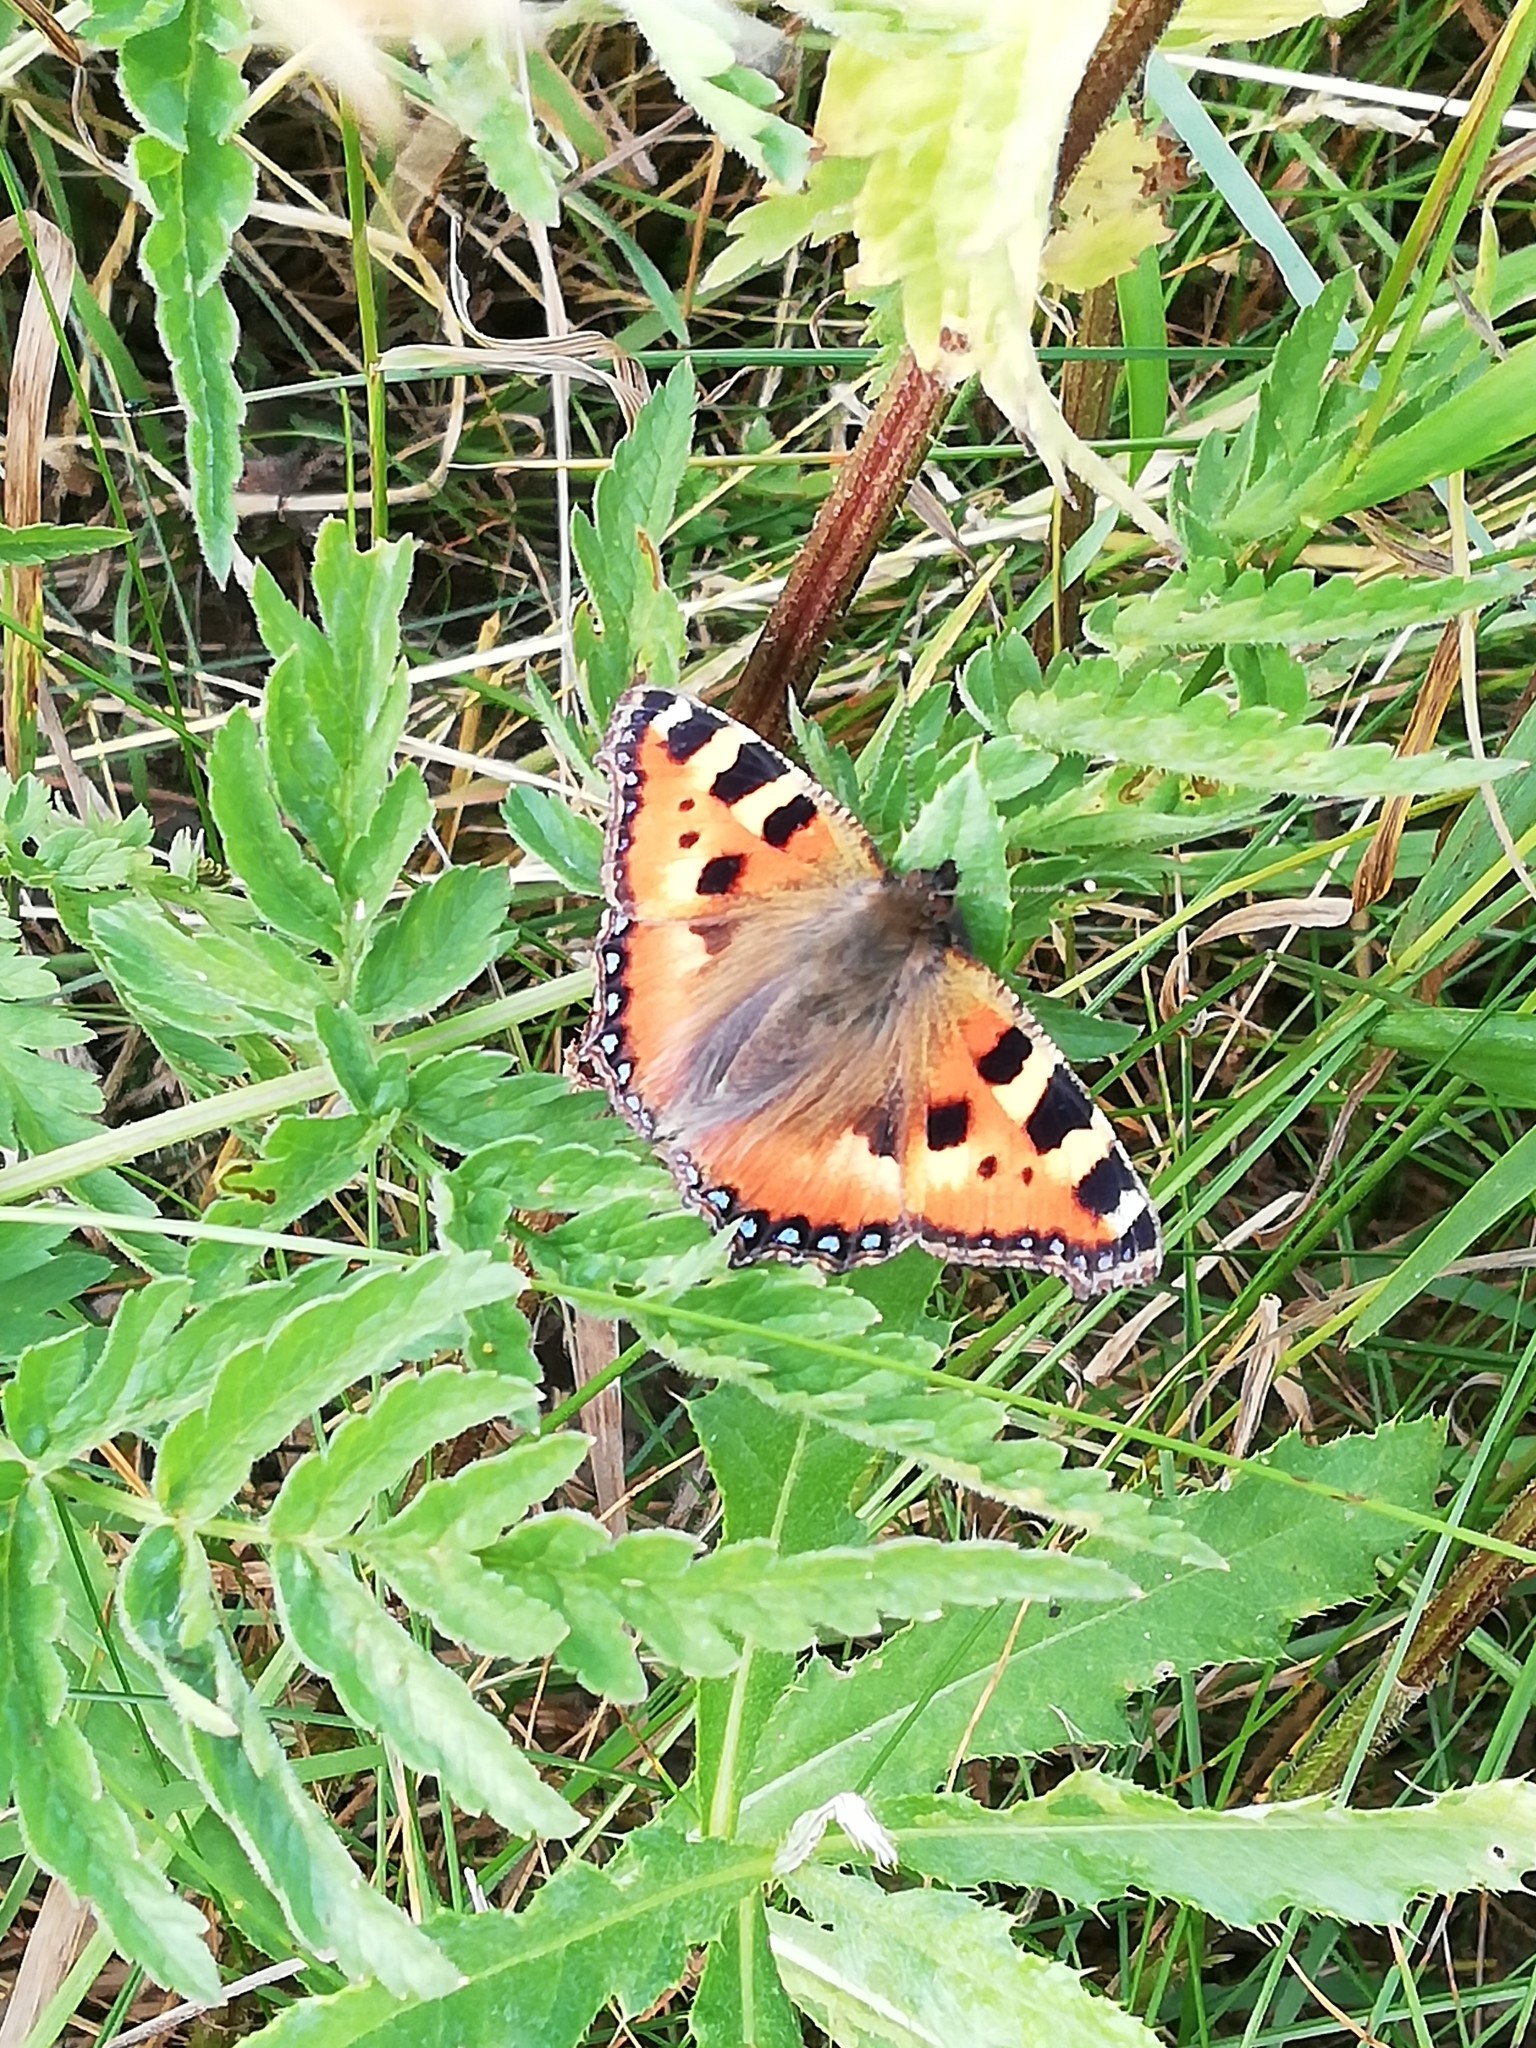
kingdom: Animalia
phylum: Arthropoda
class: Insecta
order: Lepidoptera
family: Nymphalidae
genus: Aglais
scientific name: Aglais urticae
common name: Small tortoiseshell
